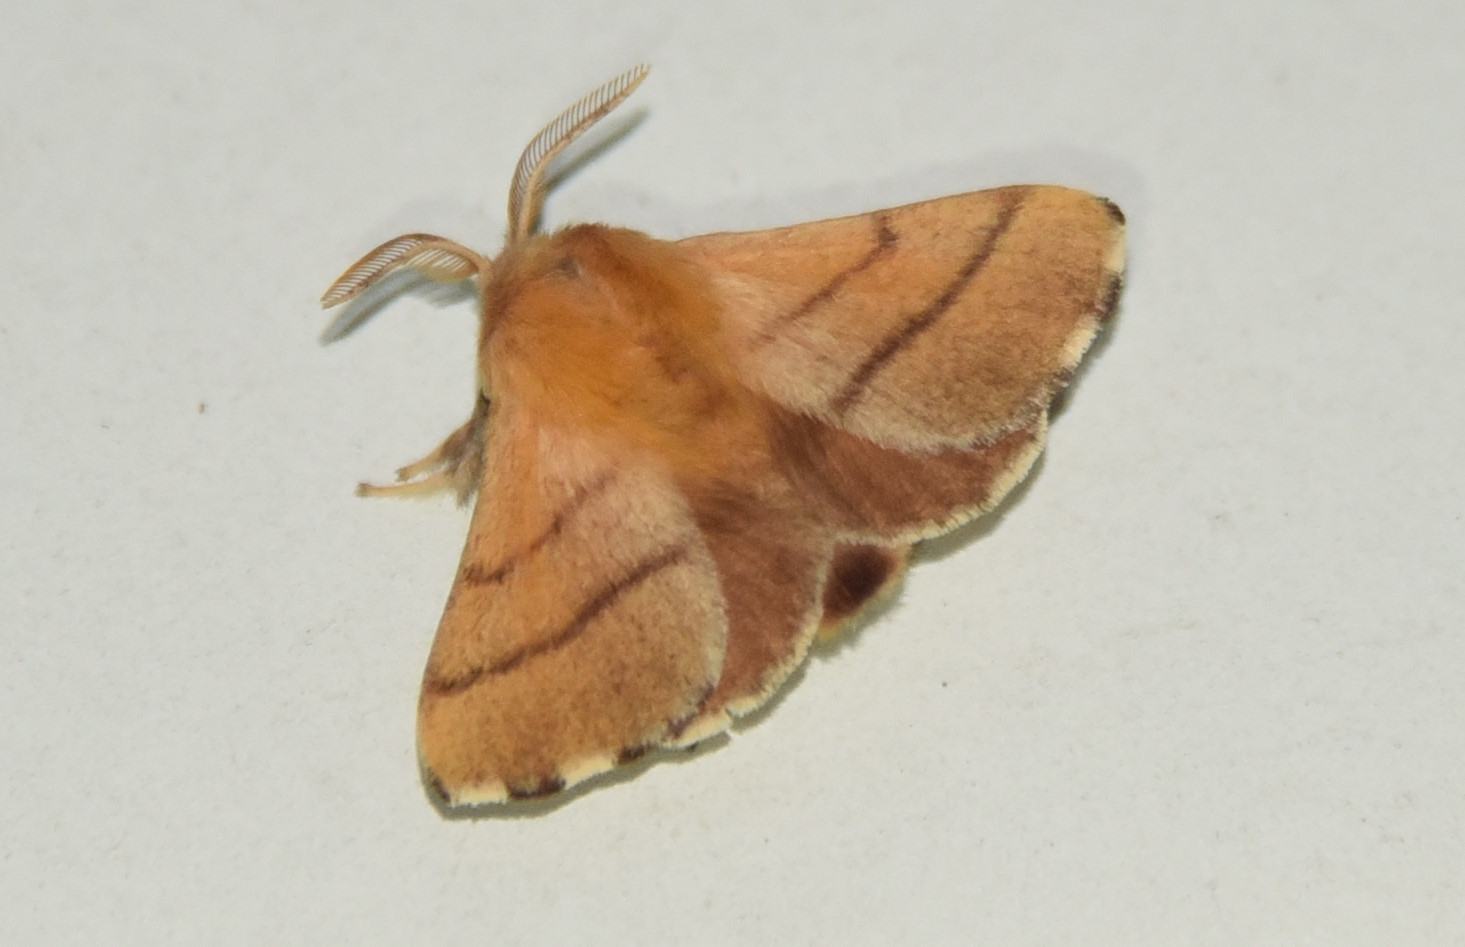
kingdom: Animalia
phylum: Arthropoda
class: Insecta
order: Lepidoptera
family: Lasiocampidae
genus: Malacosoma
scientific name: Malacosoma disstria
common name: Forest tent caterpillar
